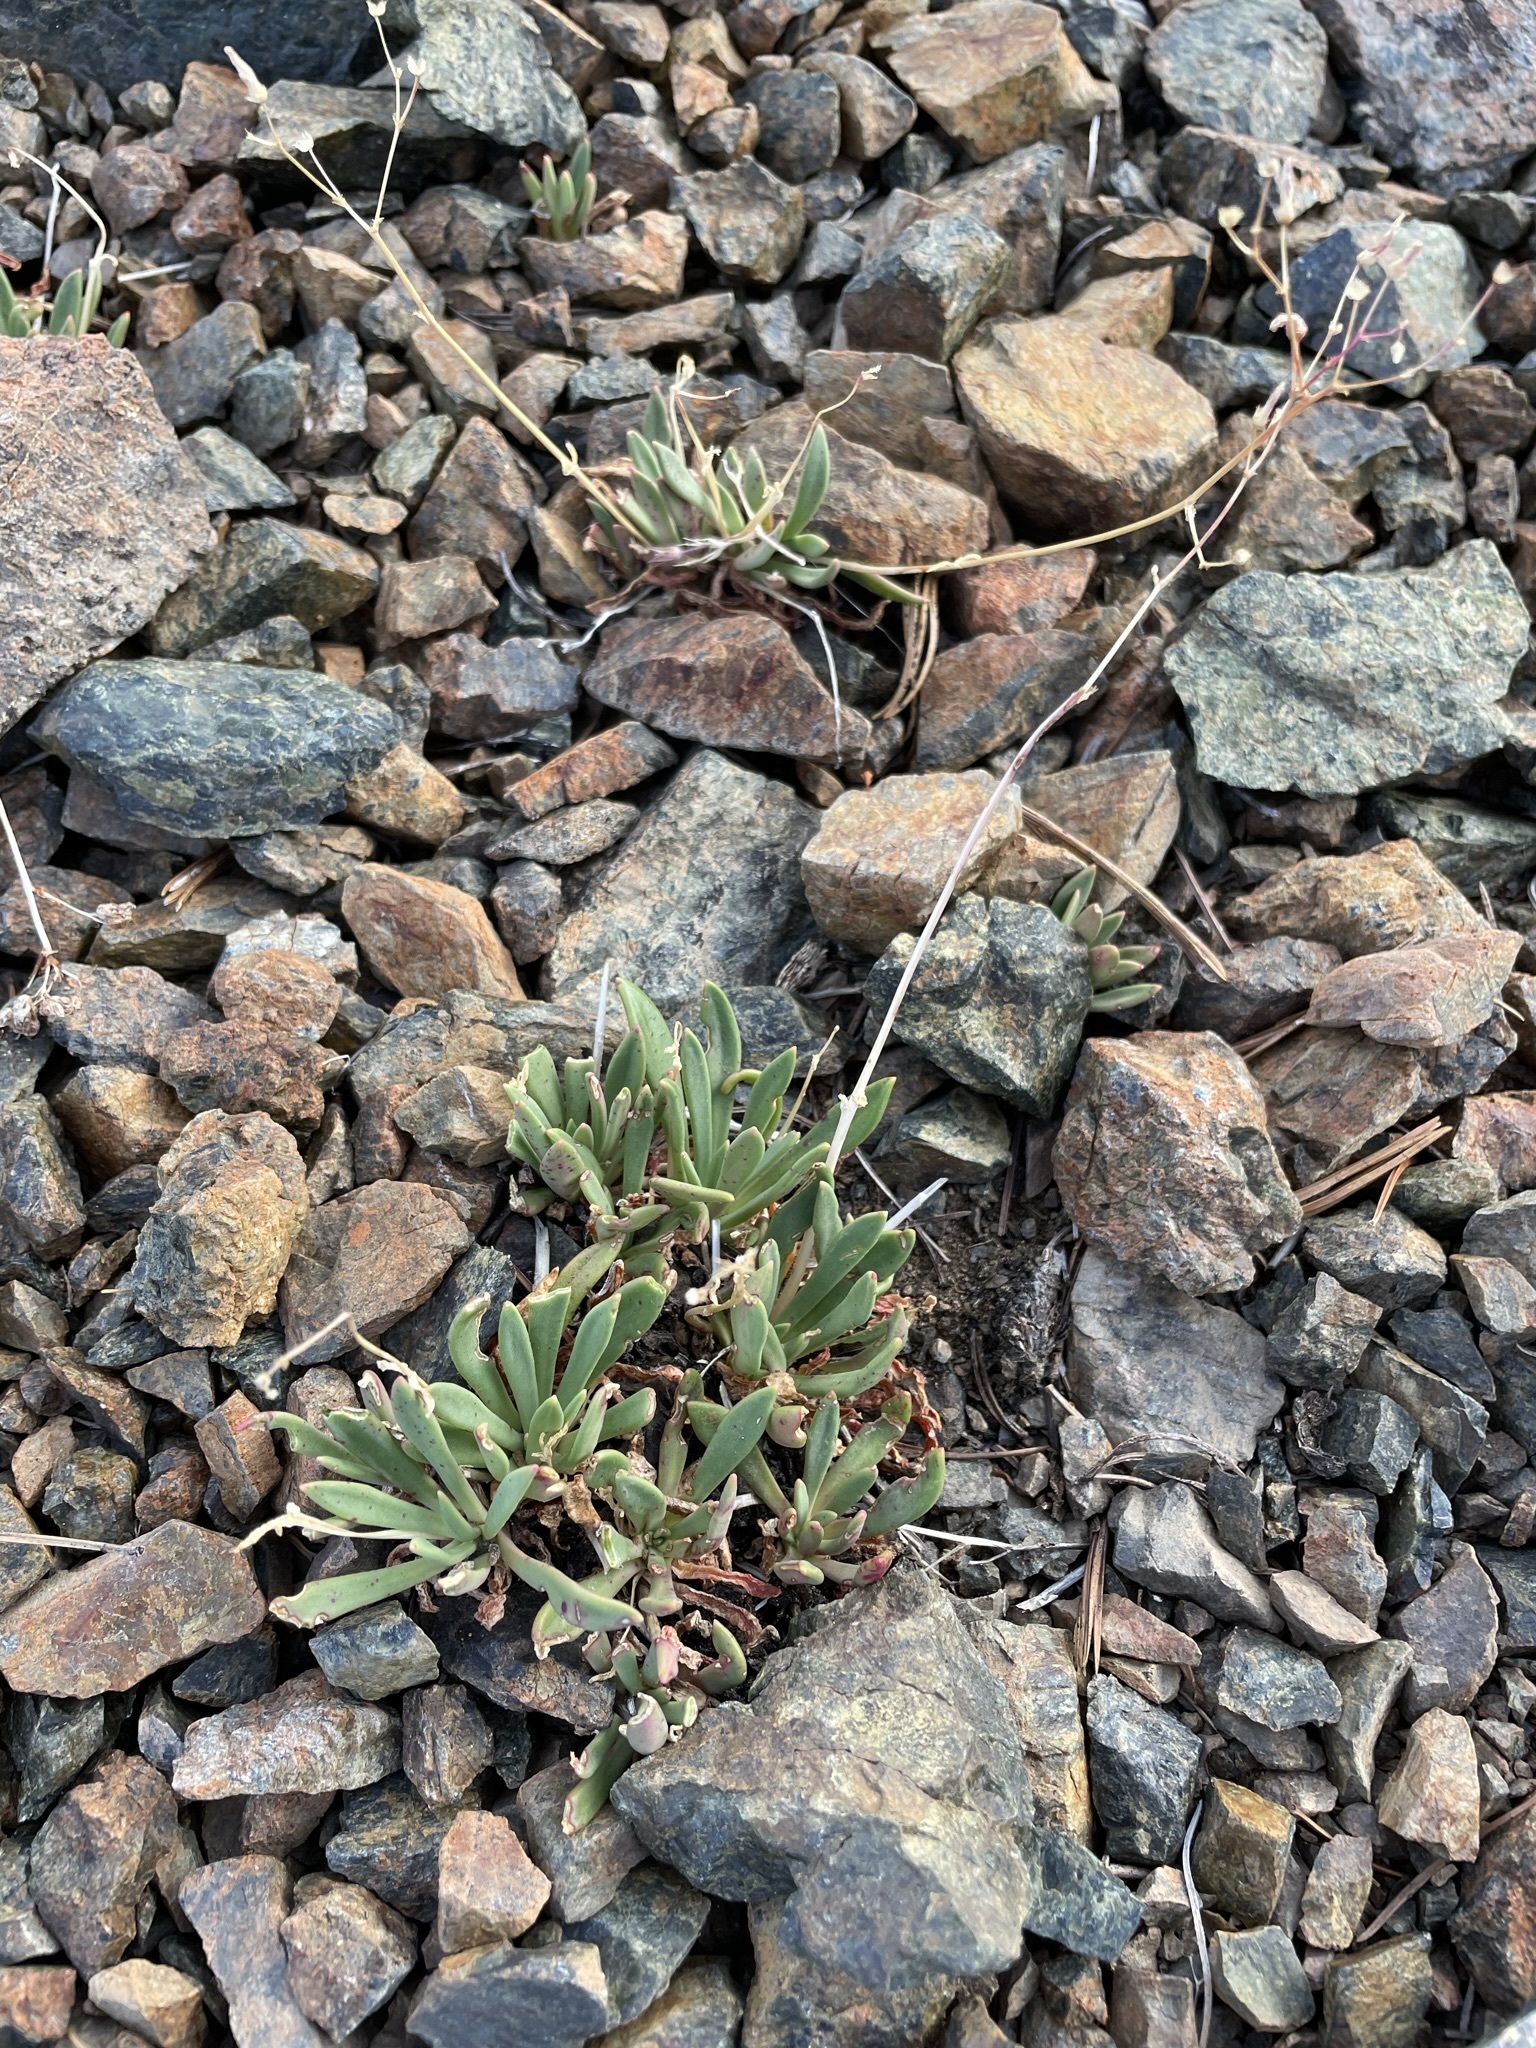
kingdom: Plantae
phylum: Tracheophyta
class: Magnoliopsida
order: Caryophyllales
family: Montiaceae
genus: Lewisia
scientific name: Lewisia columbiana
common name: Columbia lewisia
